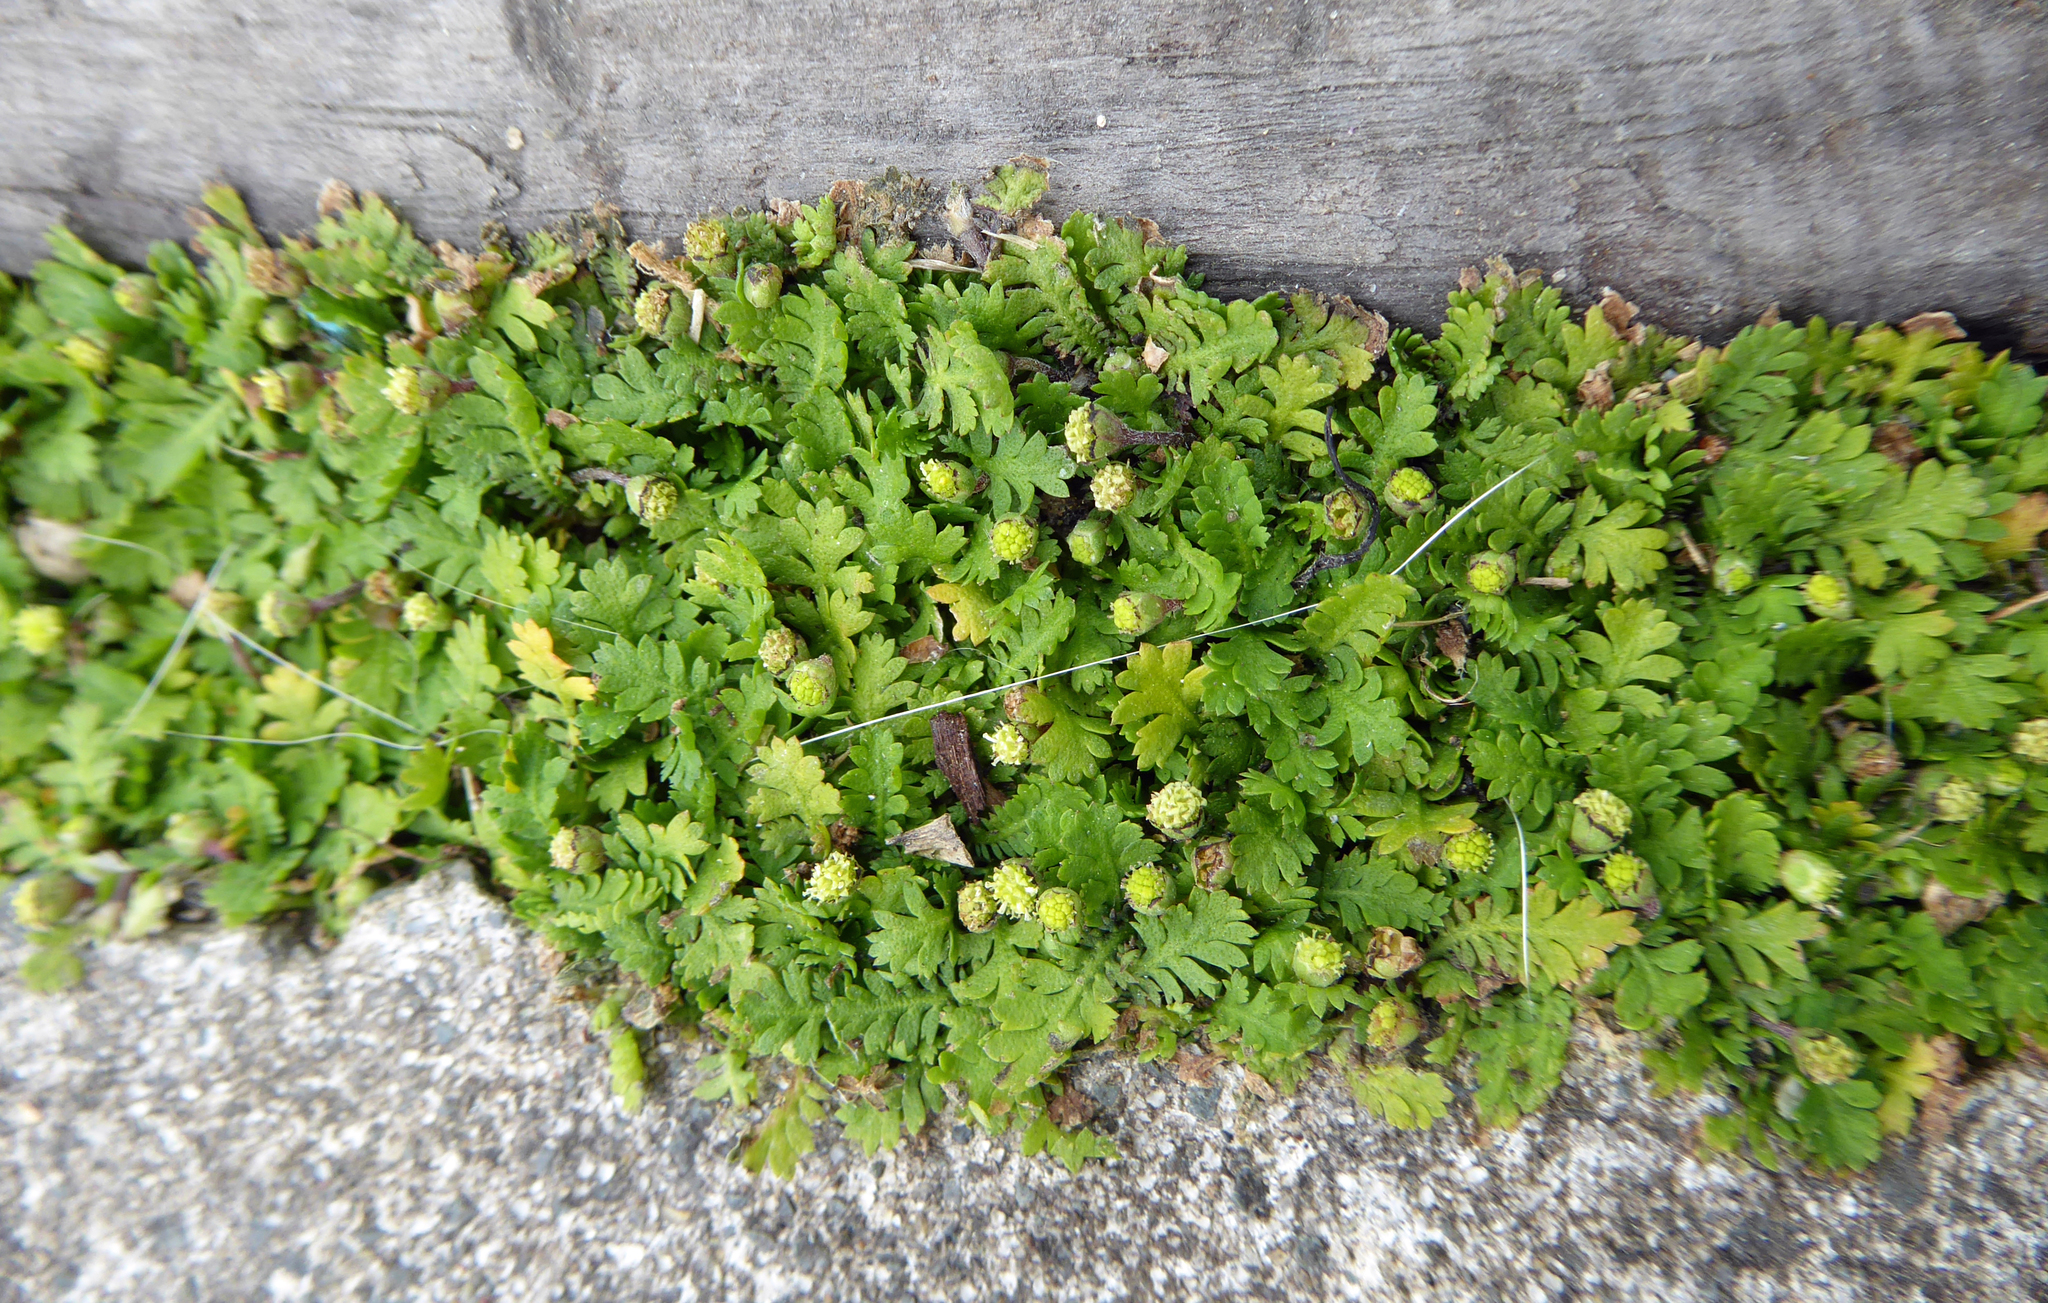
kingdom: Plantae
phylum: Tracheophyta
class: Magnoliopsida
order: Asterales
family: Asteraceae
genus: Leptinella
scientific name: Leptinella squalida
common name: New zealand brass-buttons
